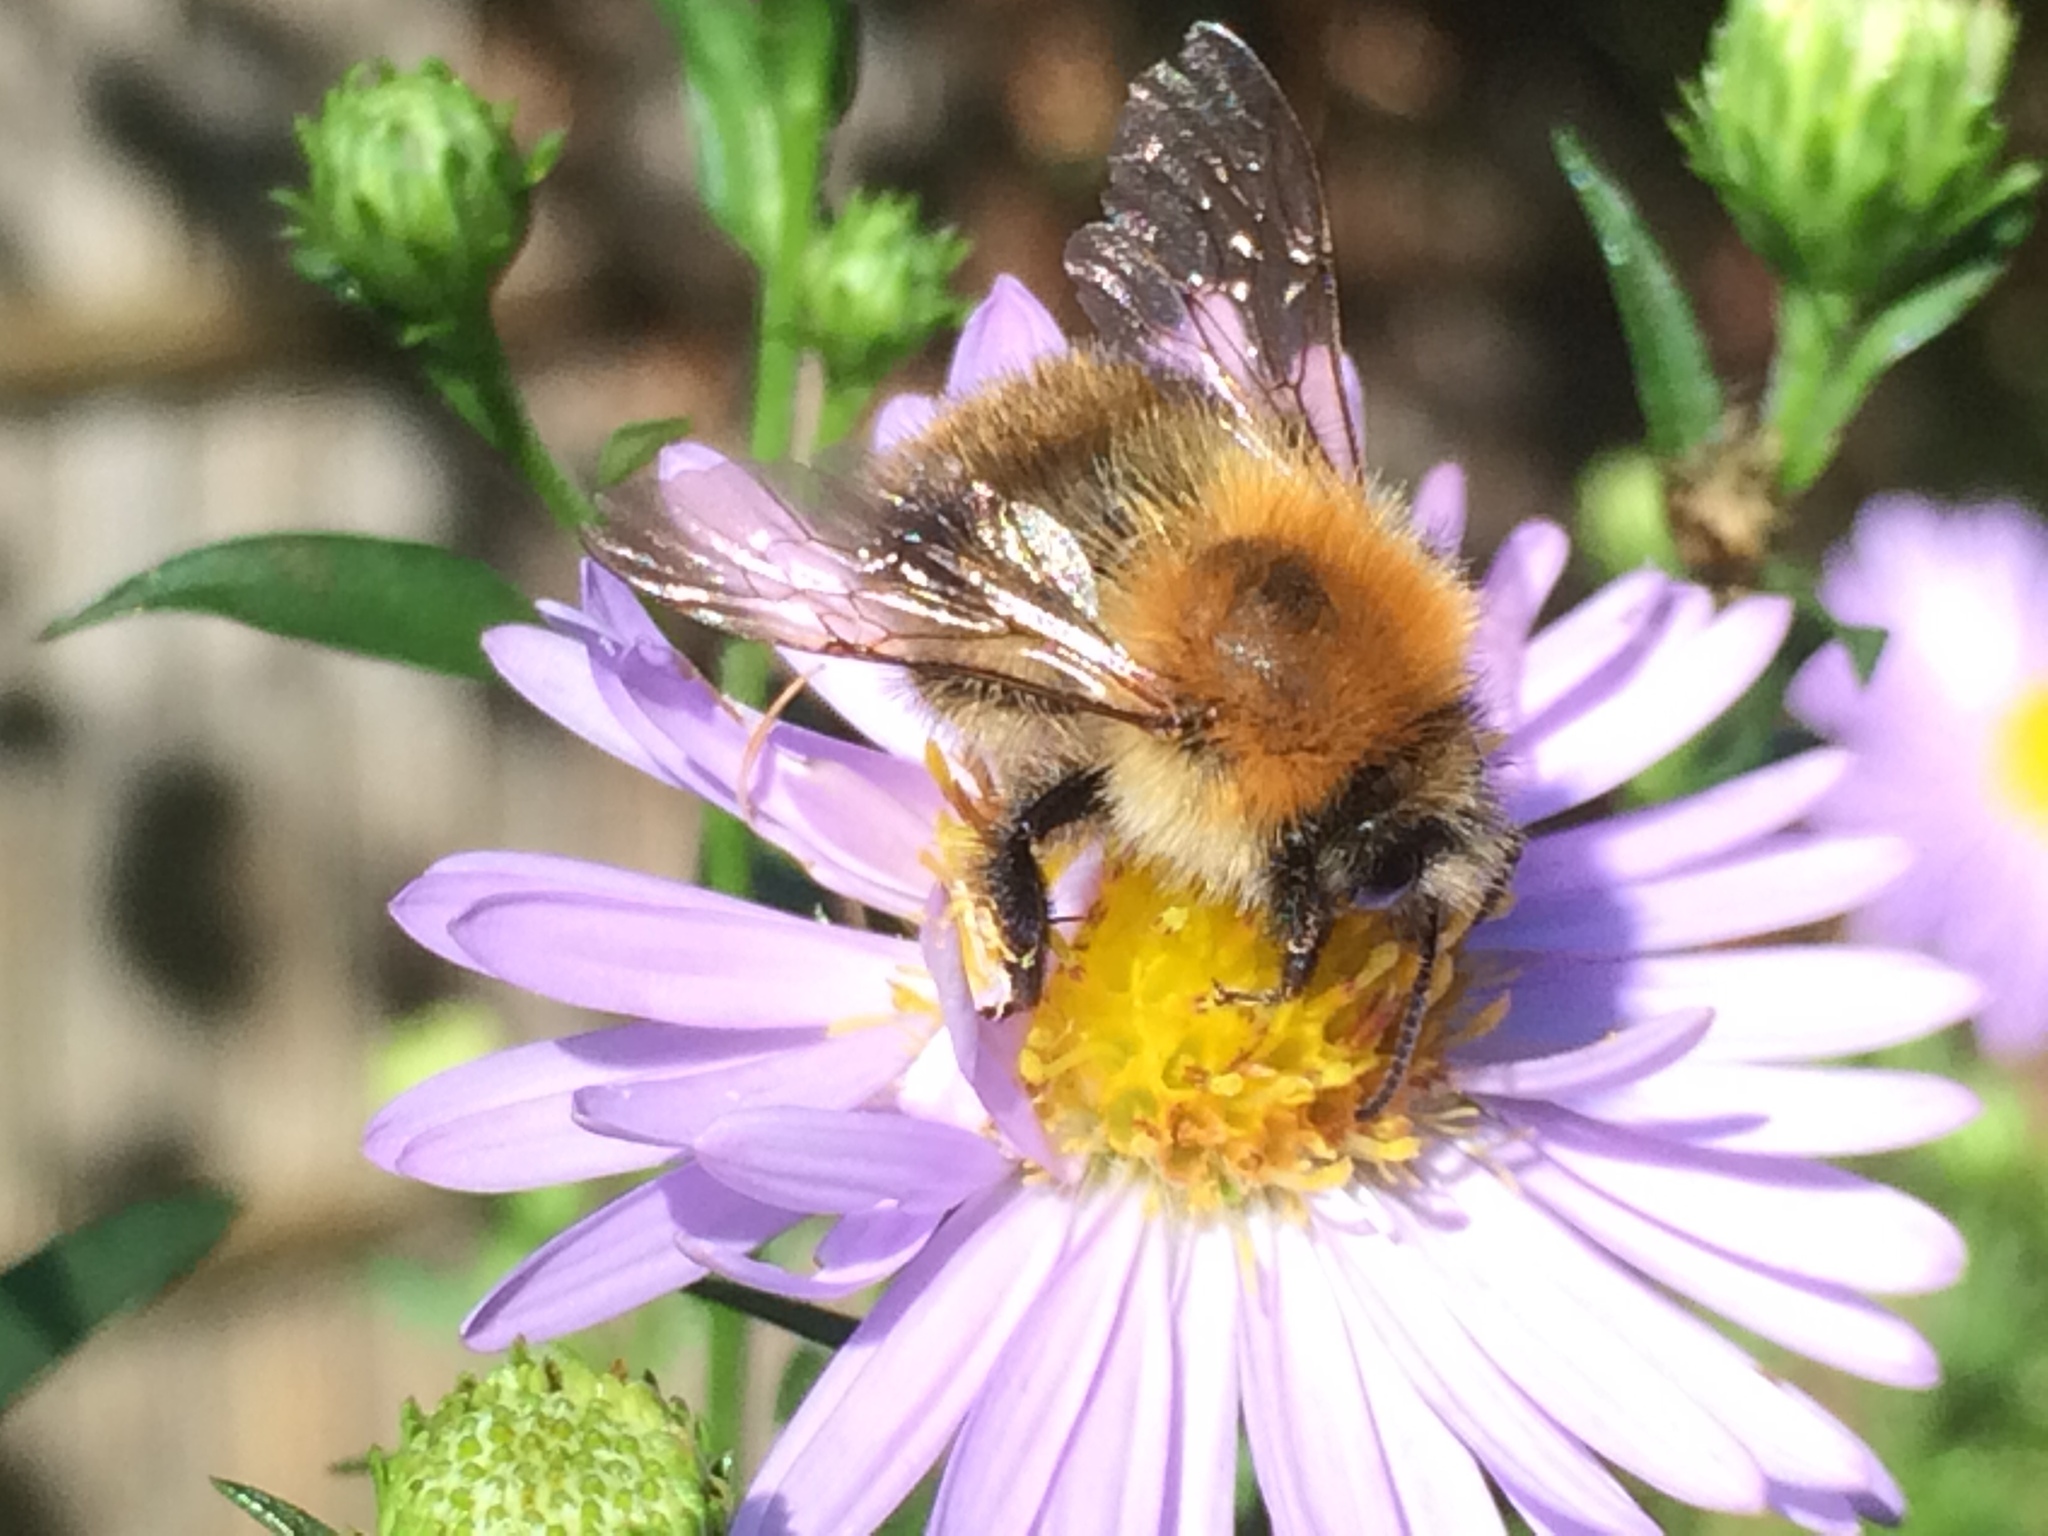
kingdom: Animalia
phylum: Arthropoda
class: Insecta
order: Hymenoptera
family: Apidae
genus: Bombus
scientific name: Bombus pascuorum
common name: Common carder bee
